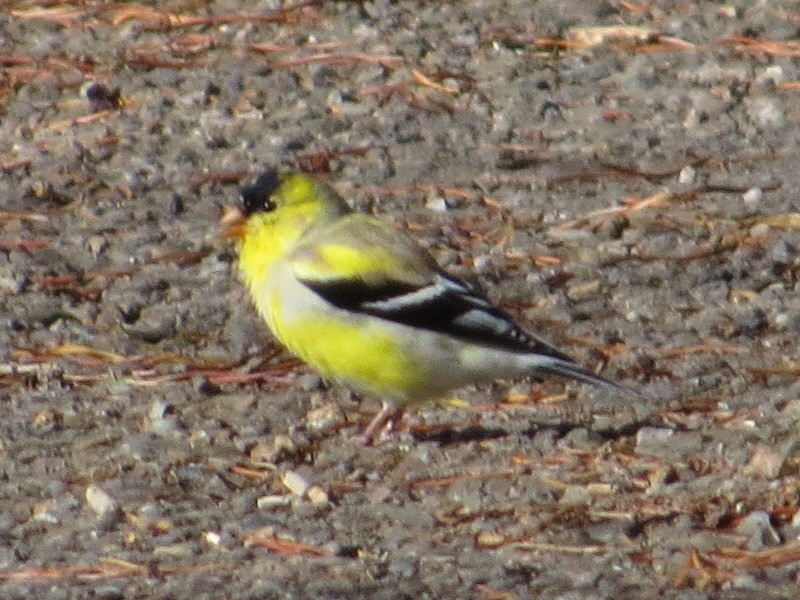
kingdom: Animalia
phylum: Chordata
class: Aves
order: Passeriformes
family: Fringillidae
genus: Spinus
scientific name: Spinus tristis
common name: American goldfinch
